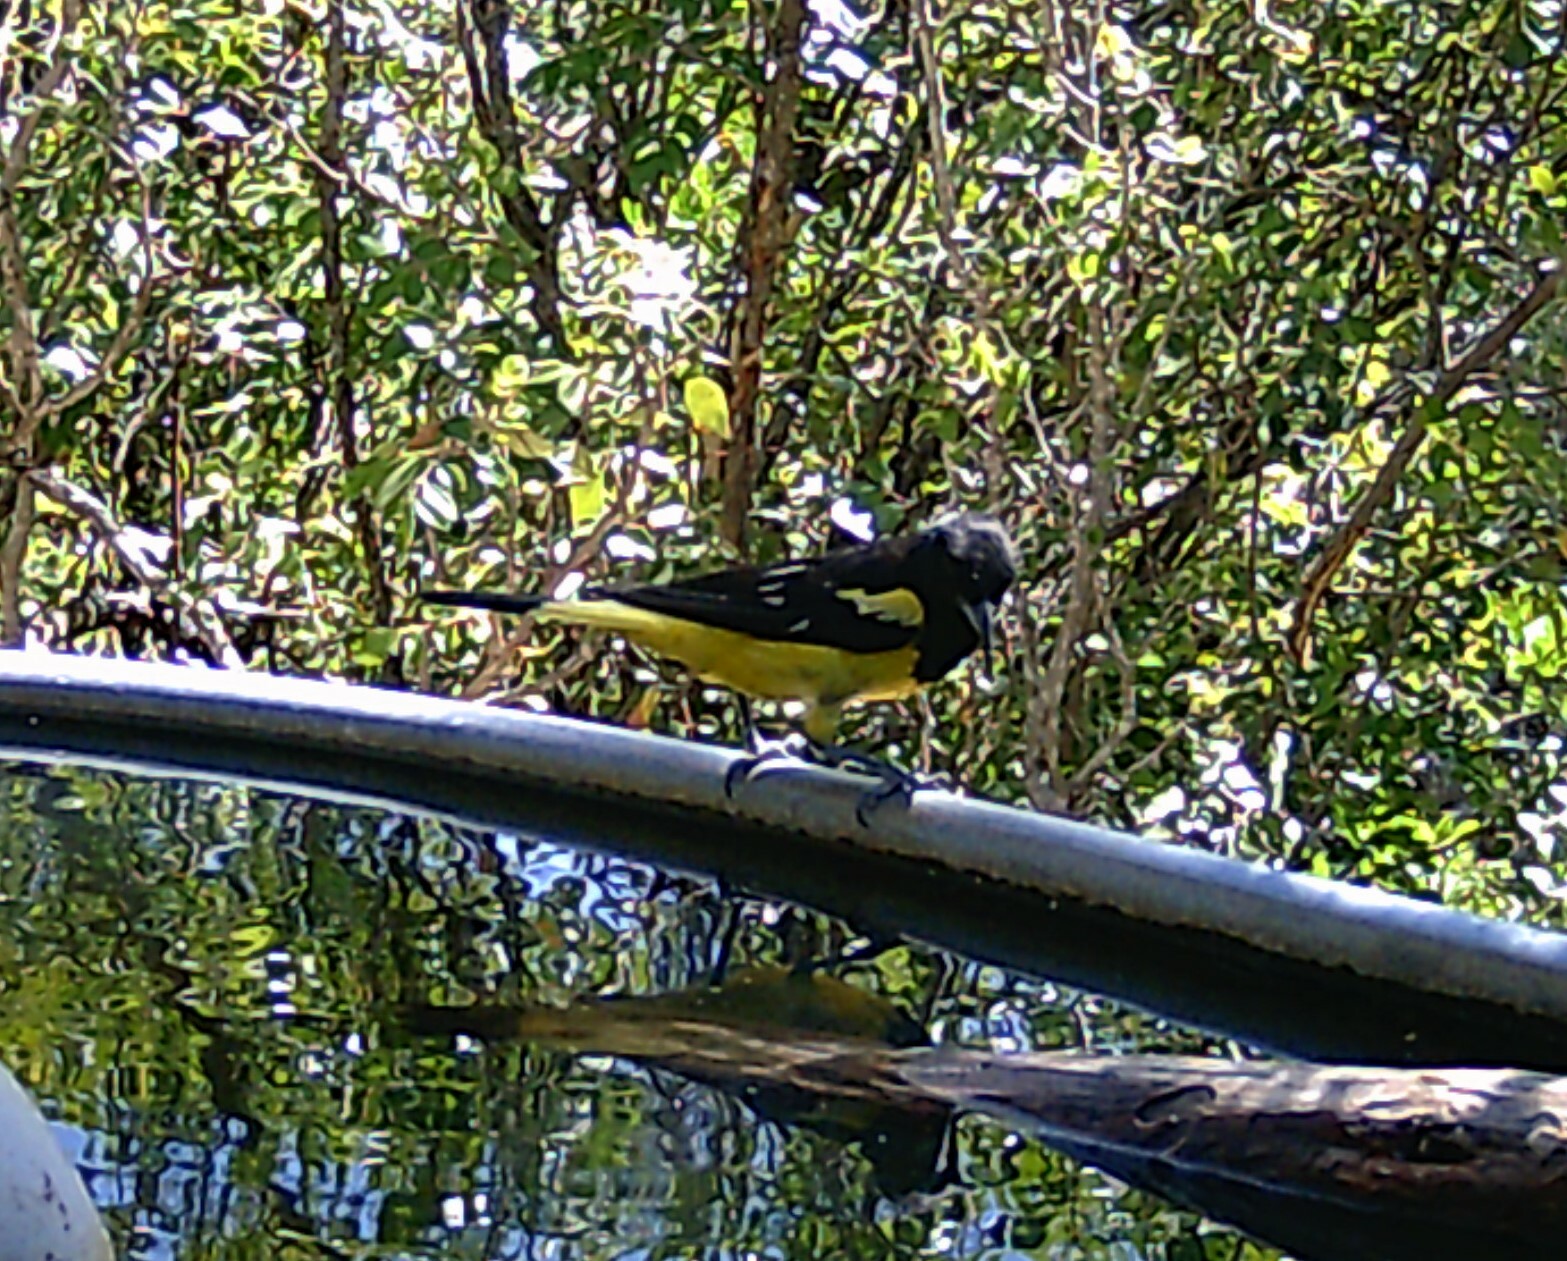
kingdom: Animalia
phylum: Chordata
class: Aves
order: Passeriformes
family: Icteridae
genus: Icterus
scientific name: Icterus parisorum
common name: Scott's oriole
